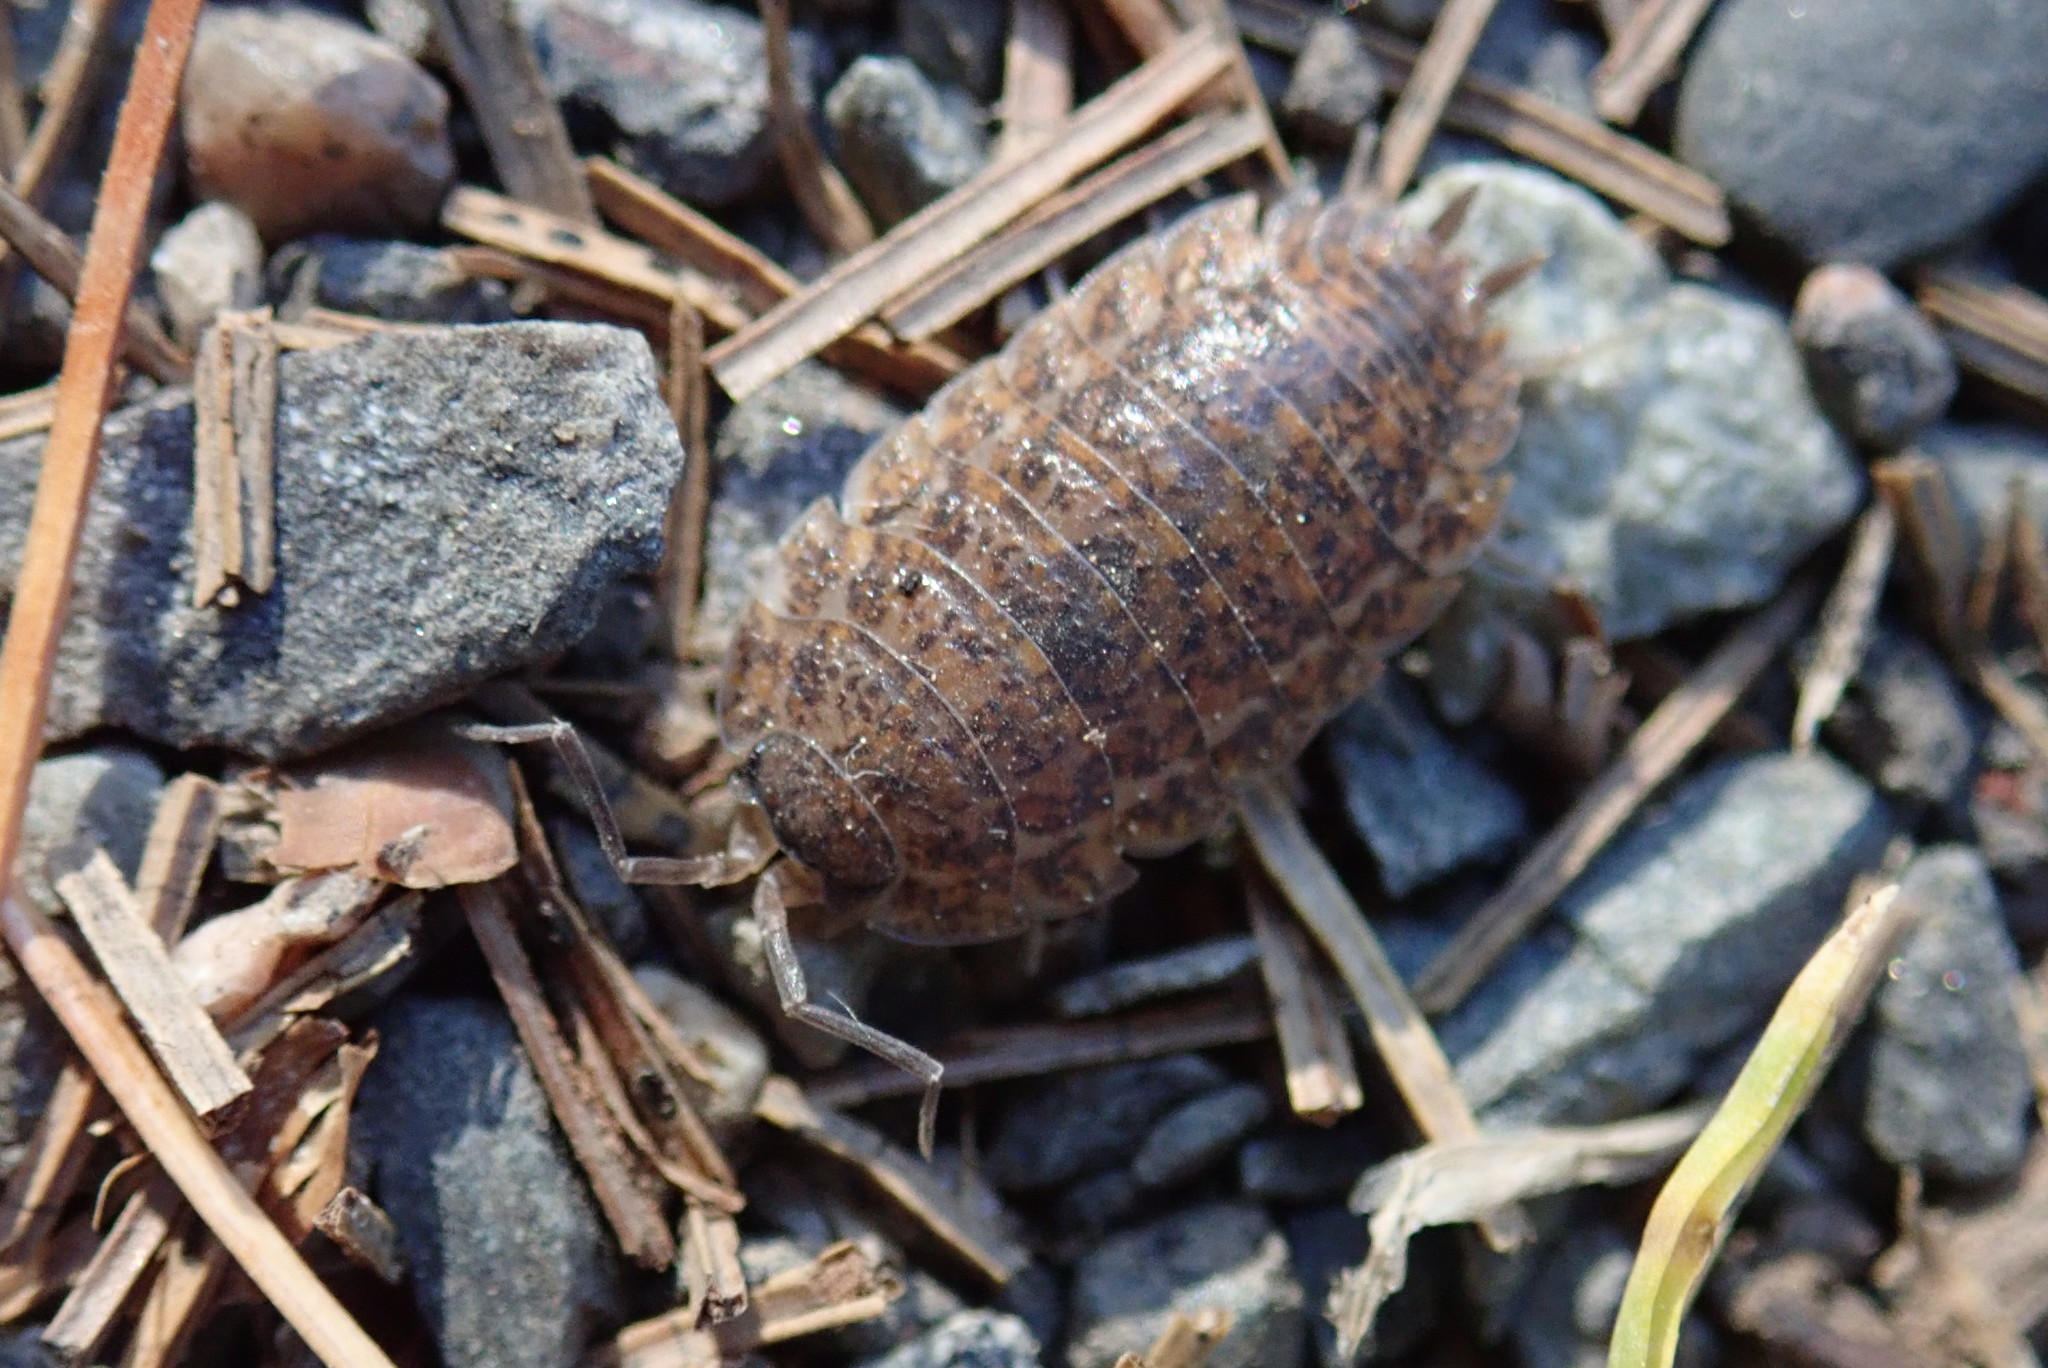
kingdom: Animalia
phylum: Arthropoda
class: Malacostraca
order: Isopoda
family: Trachelipodidae
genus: Trachelipus
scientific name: Trachelipus rathkii
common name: Isopod
